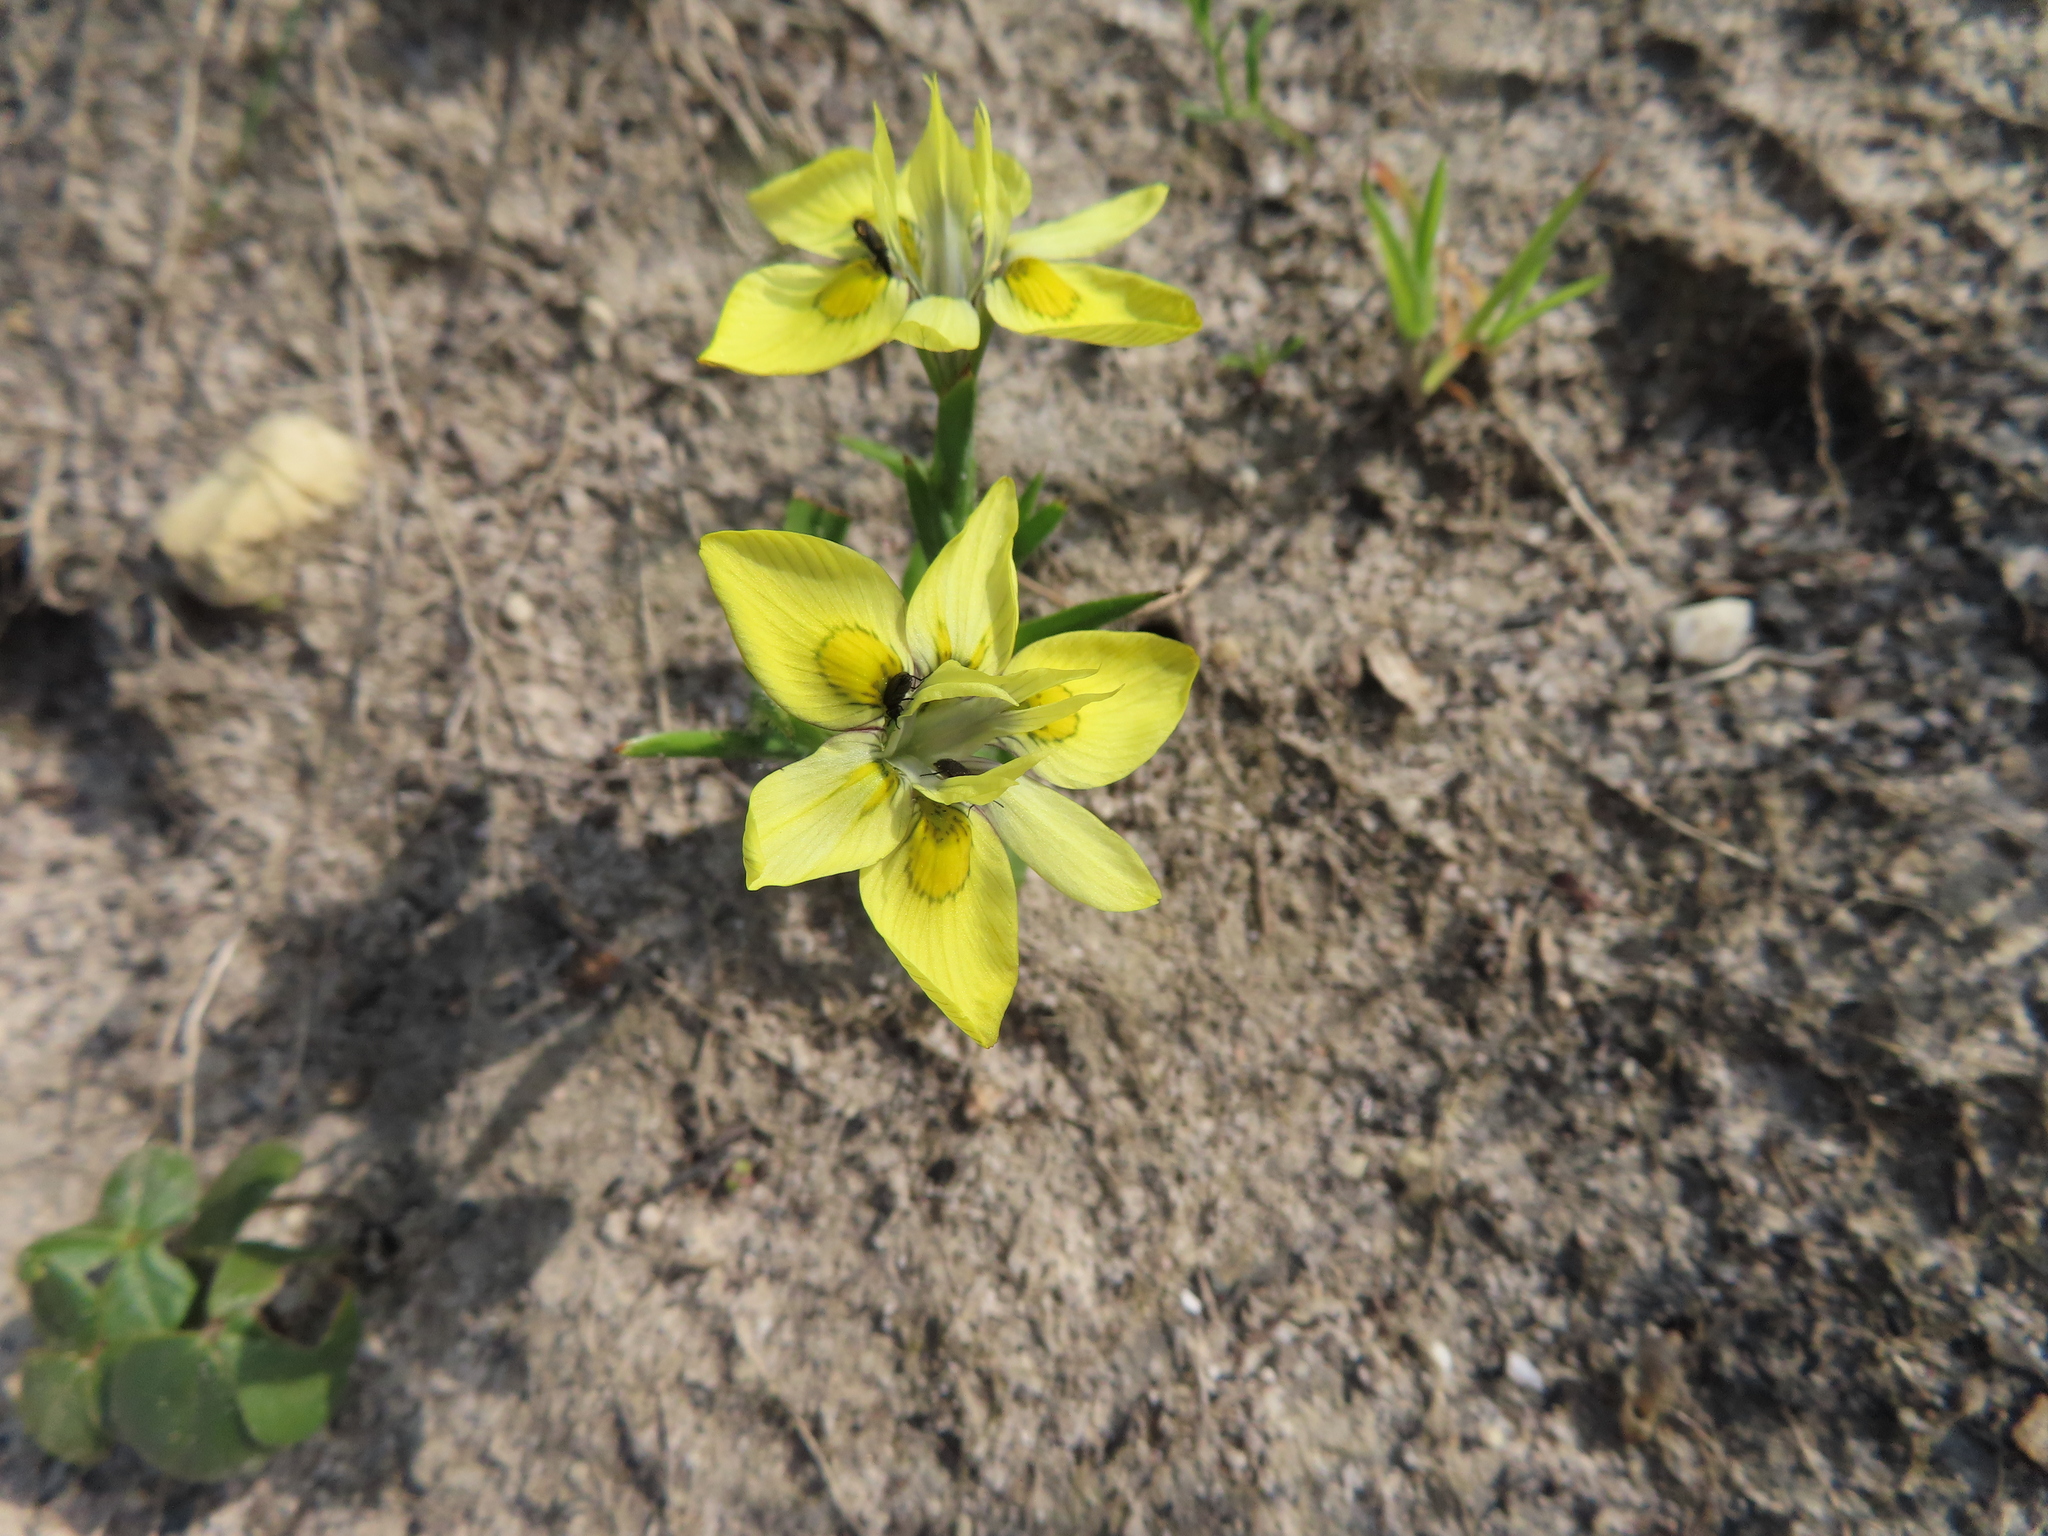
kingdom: Plantae
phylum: Tracheophyta
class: Liliopsida
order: Asparagales
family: Iridaceae
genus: Moraea
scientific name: Moraea papilionacea
